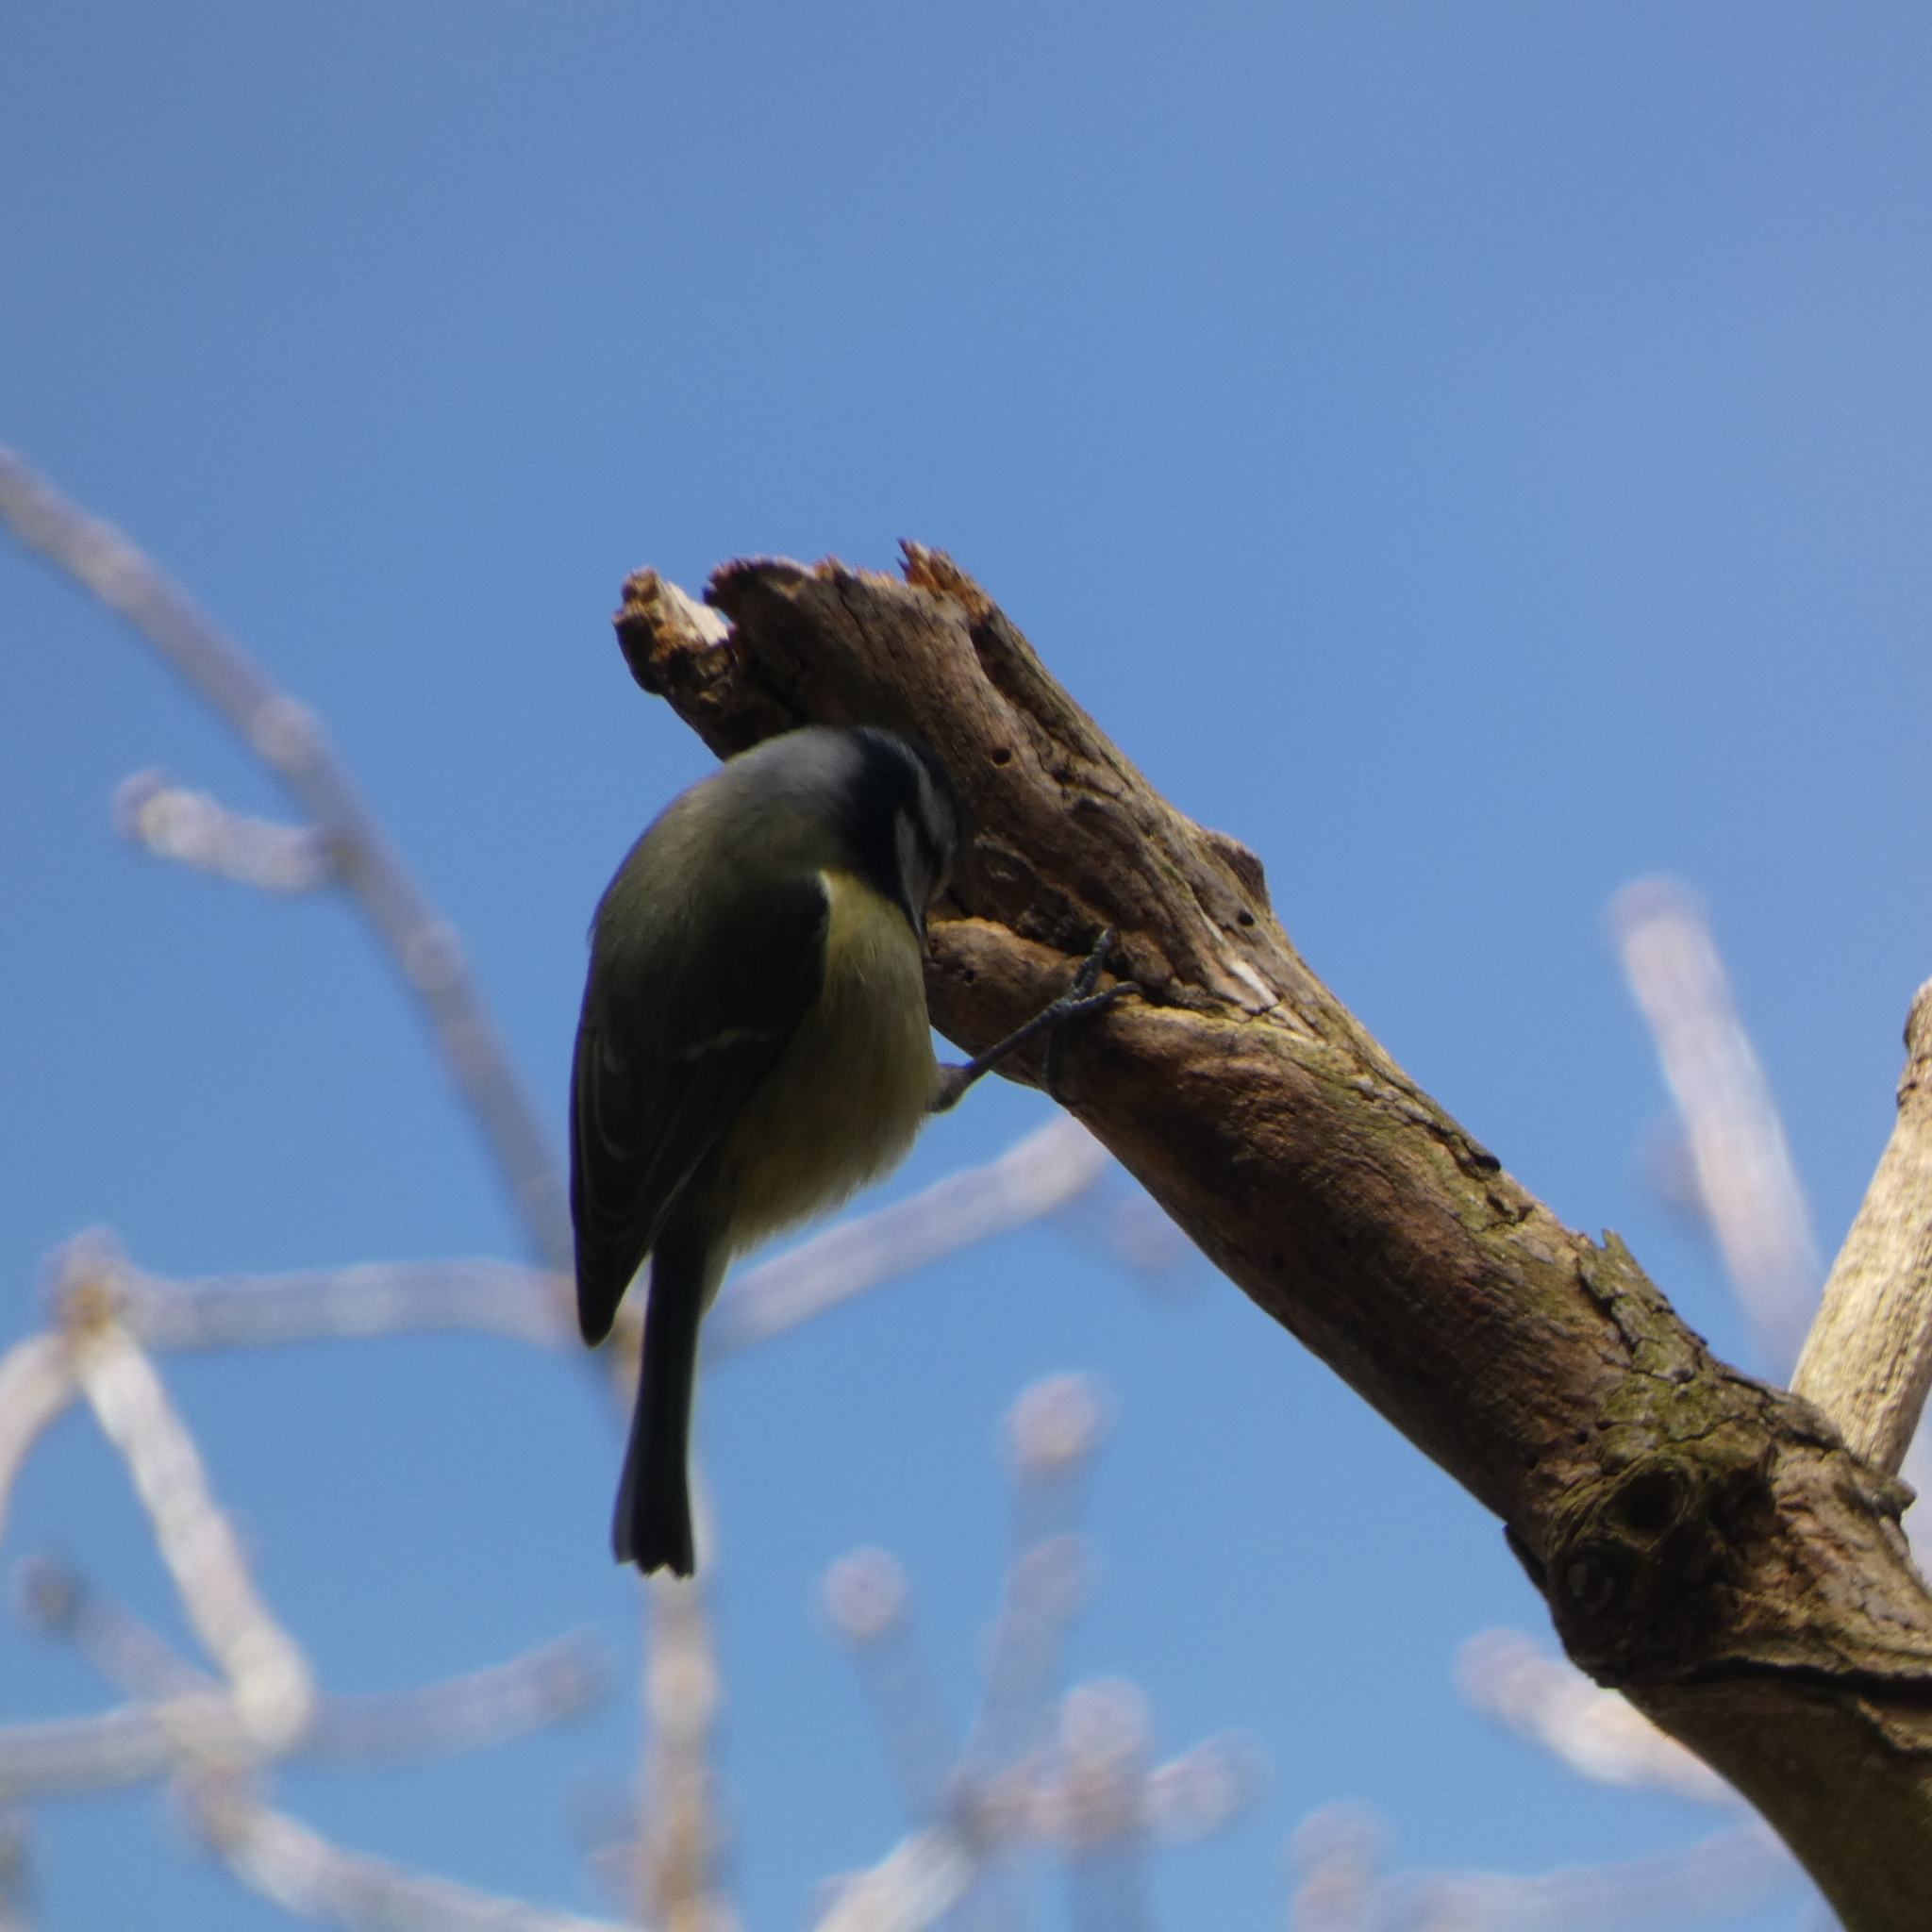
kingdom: Animalia
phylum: Chordata
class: Aves
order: Passeriformes
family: Paridae
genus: Cyanistes
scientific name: Cyanistes caeruleus
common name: Eurasian blue tit
